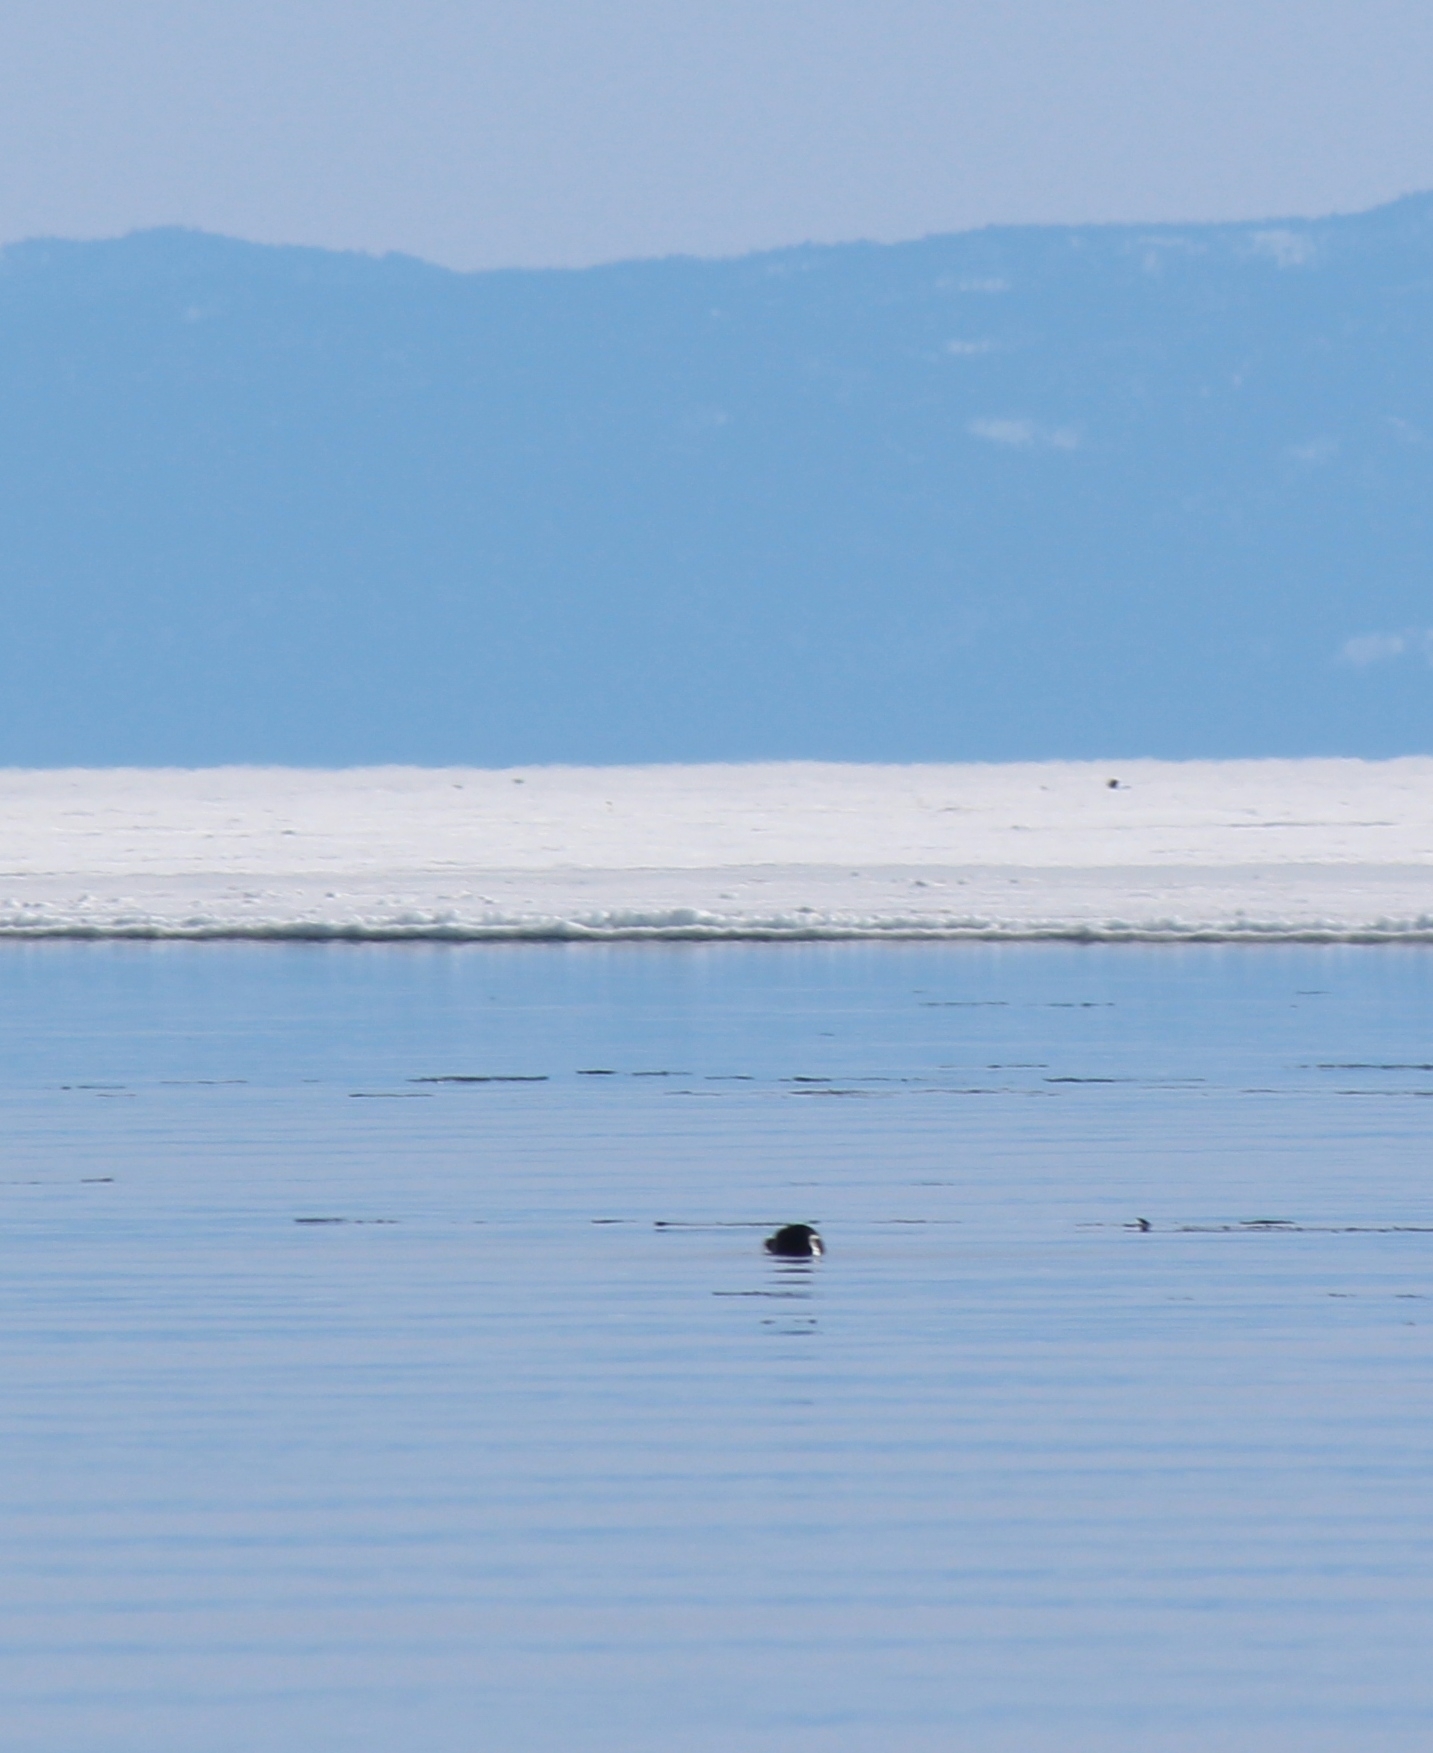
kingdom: Animalia
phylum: Chordata
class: Mammalia
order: Carnivora
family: Phocidae
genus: Pusa
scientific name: Pusa sibirica
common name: Baikal seal
